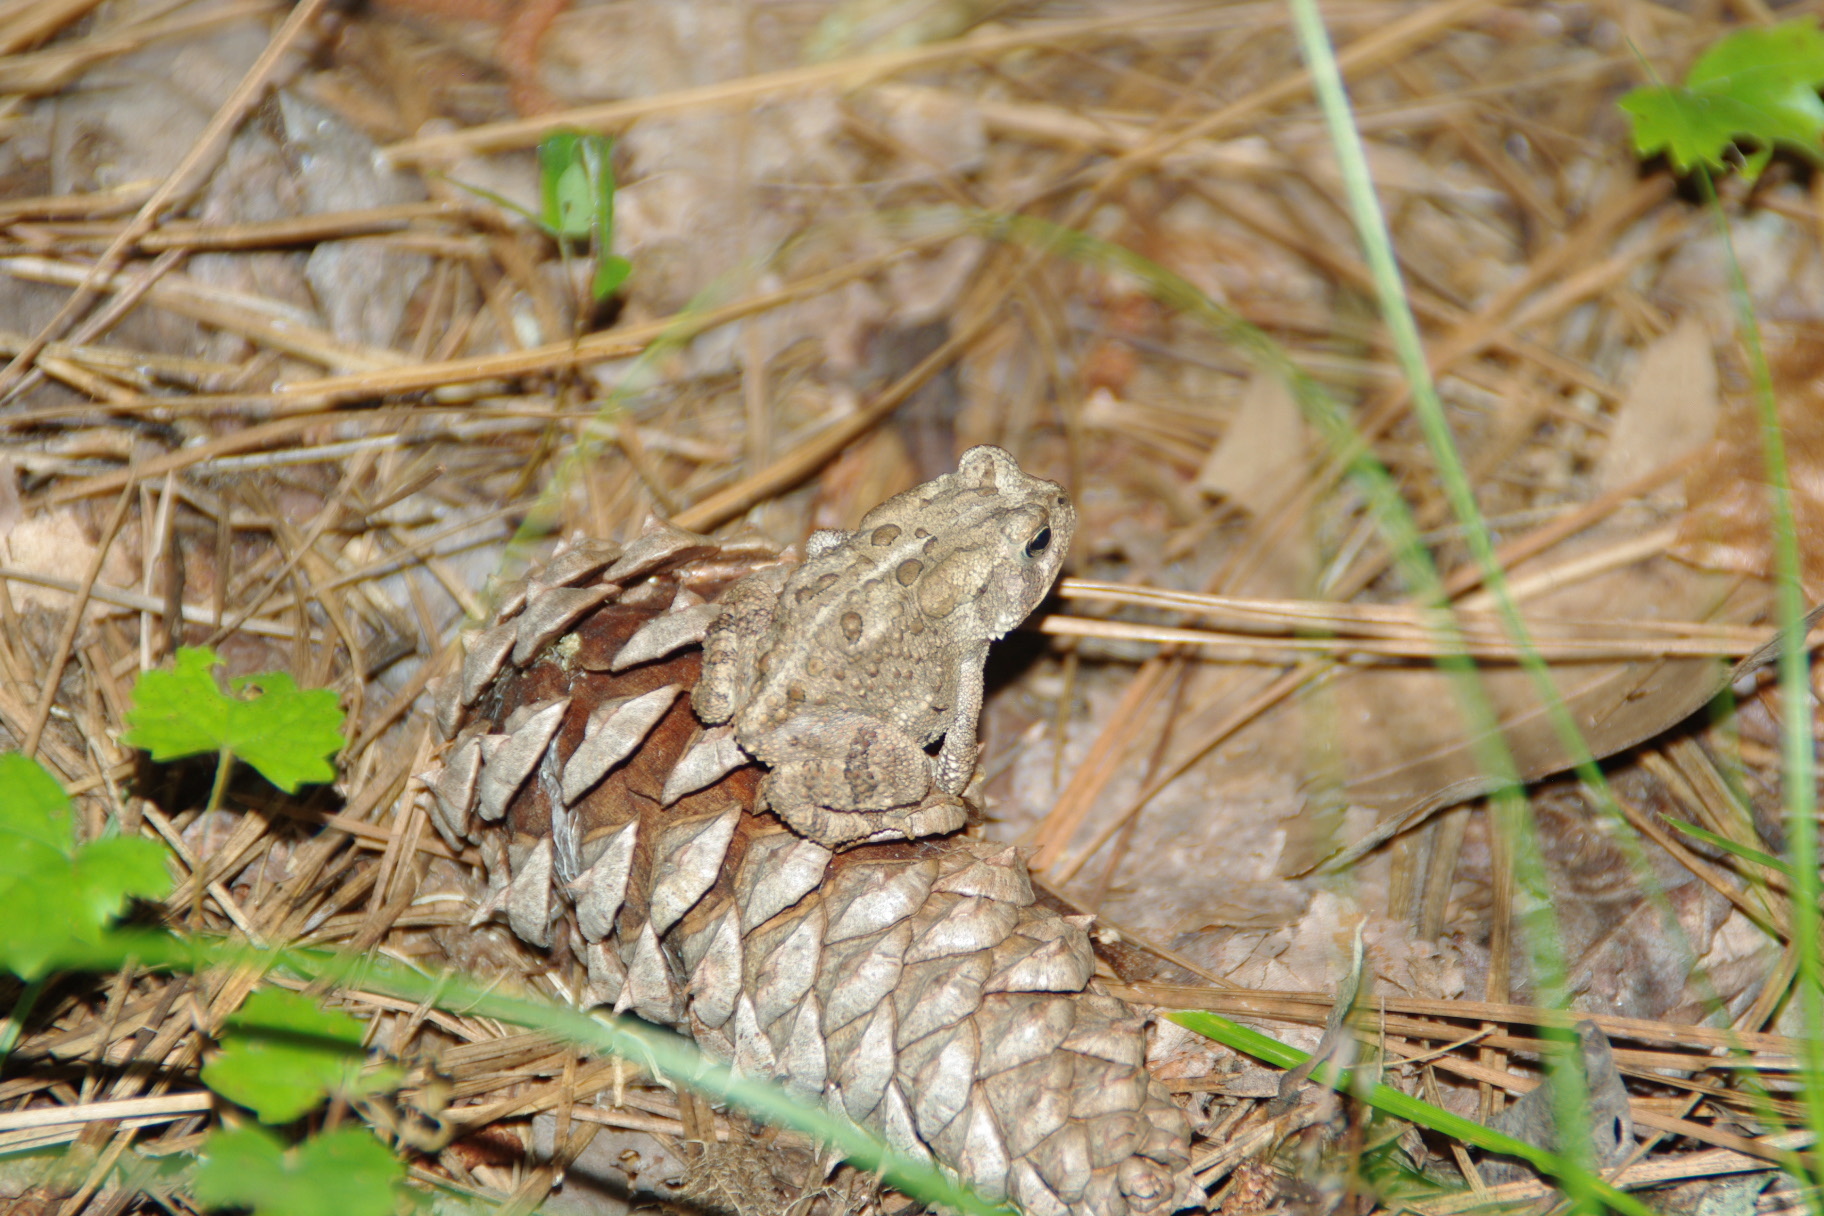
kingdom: Animalia
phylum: Chordata
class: Amphibia
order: Anura
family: Bufonidae
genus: Anaxyrus
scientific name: Anaxyrus terrestris
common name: Southern toad
